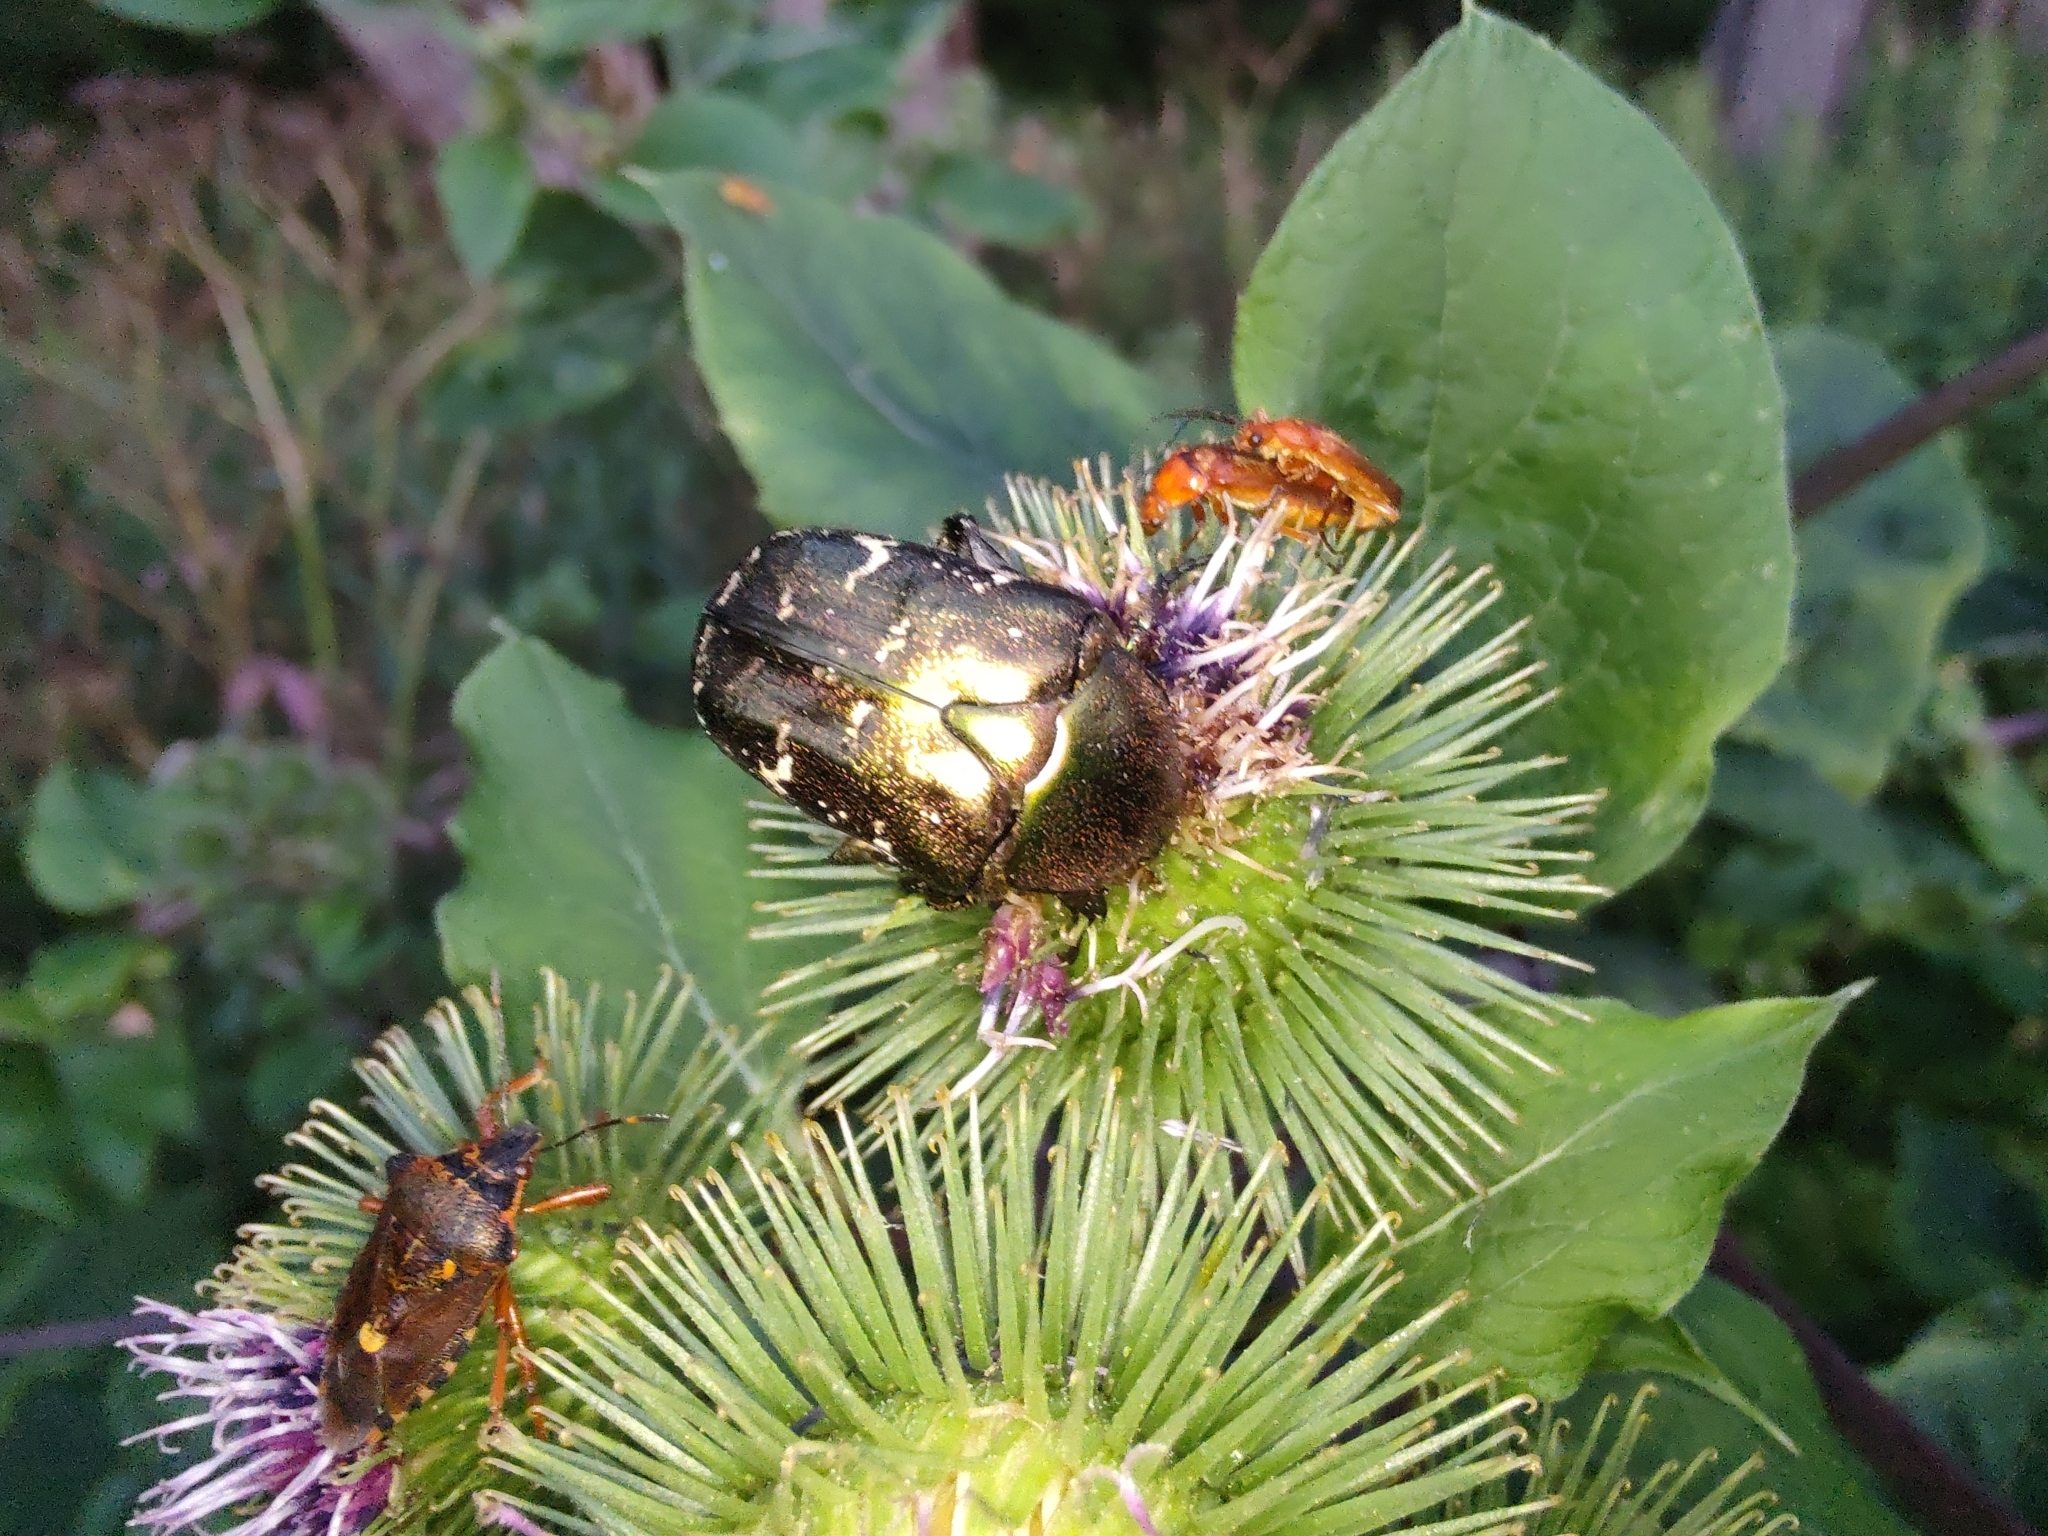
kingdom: Animalia
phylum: Arthropoda
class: Insecta
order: Coleoptera
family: Scarabaeidae
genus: Protaetia
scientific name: Protaetia cuprea
